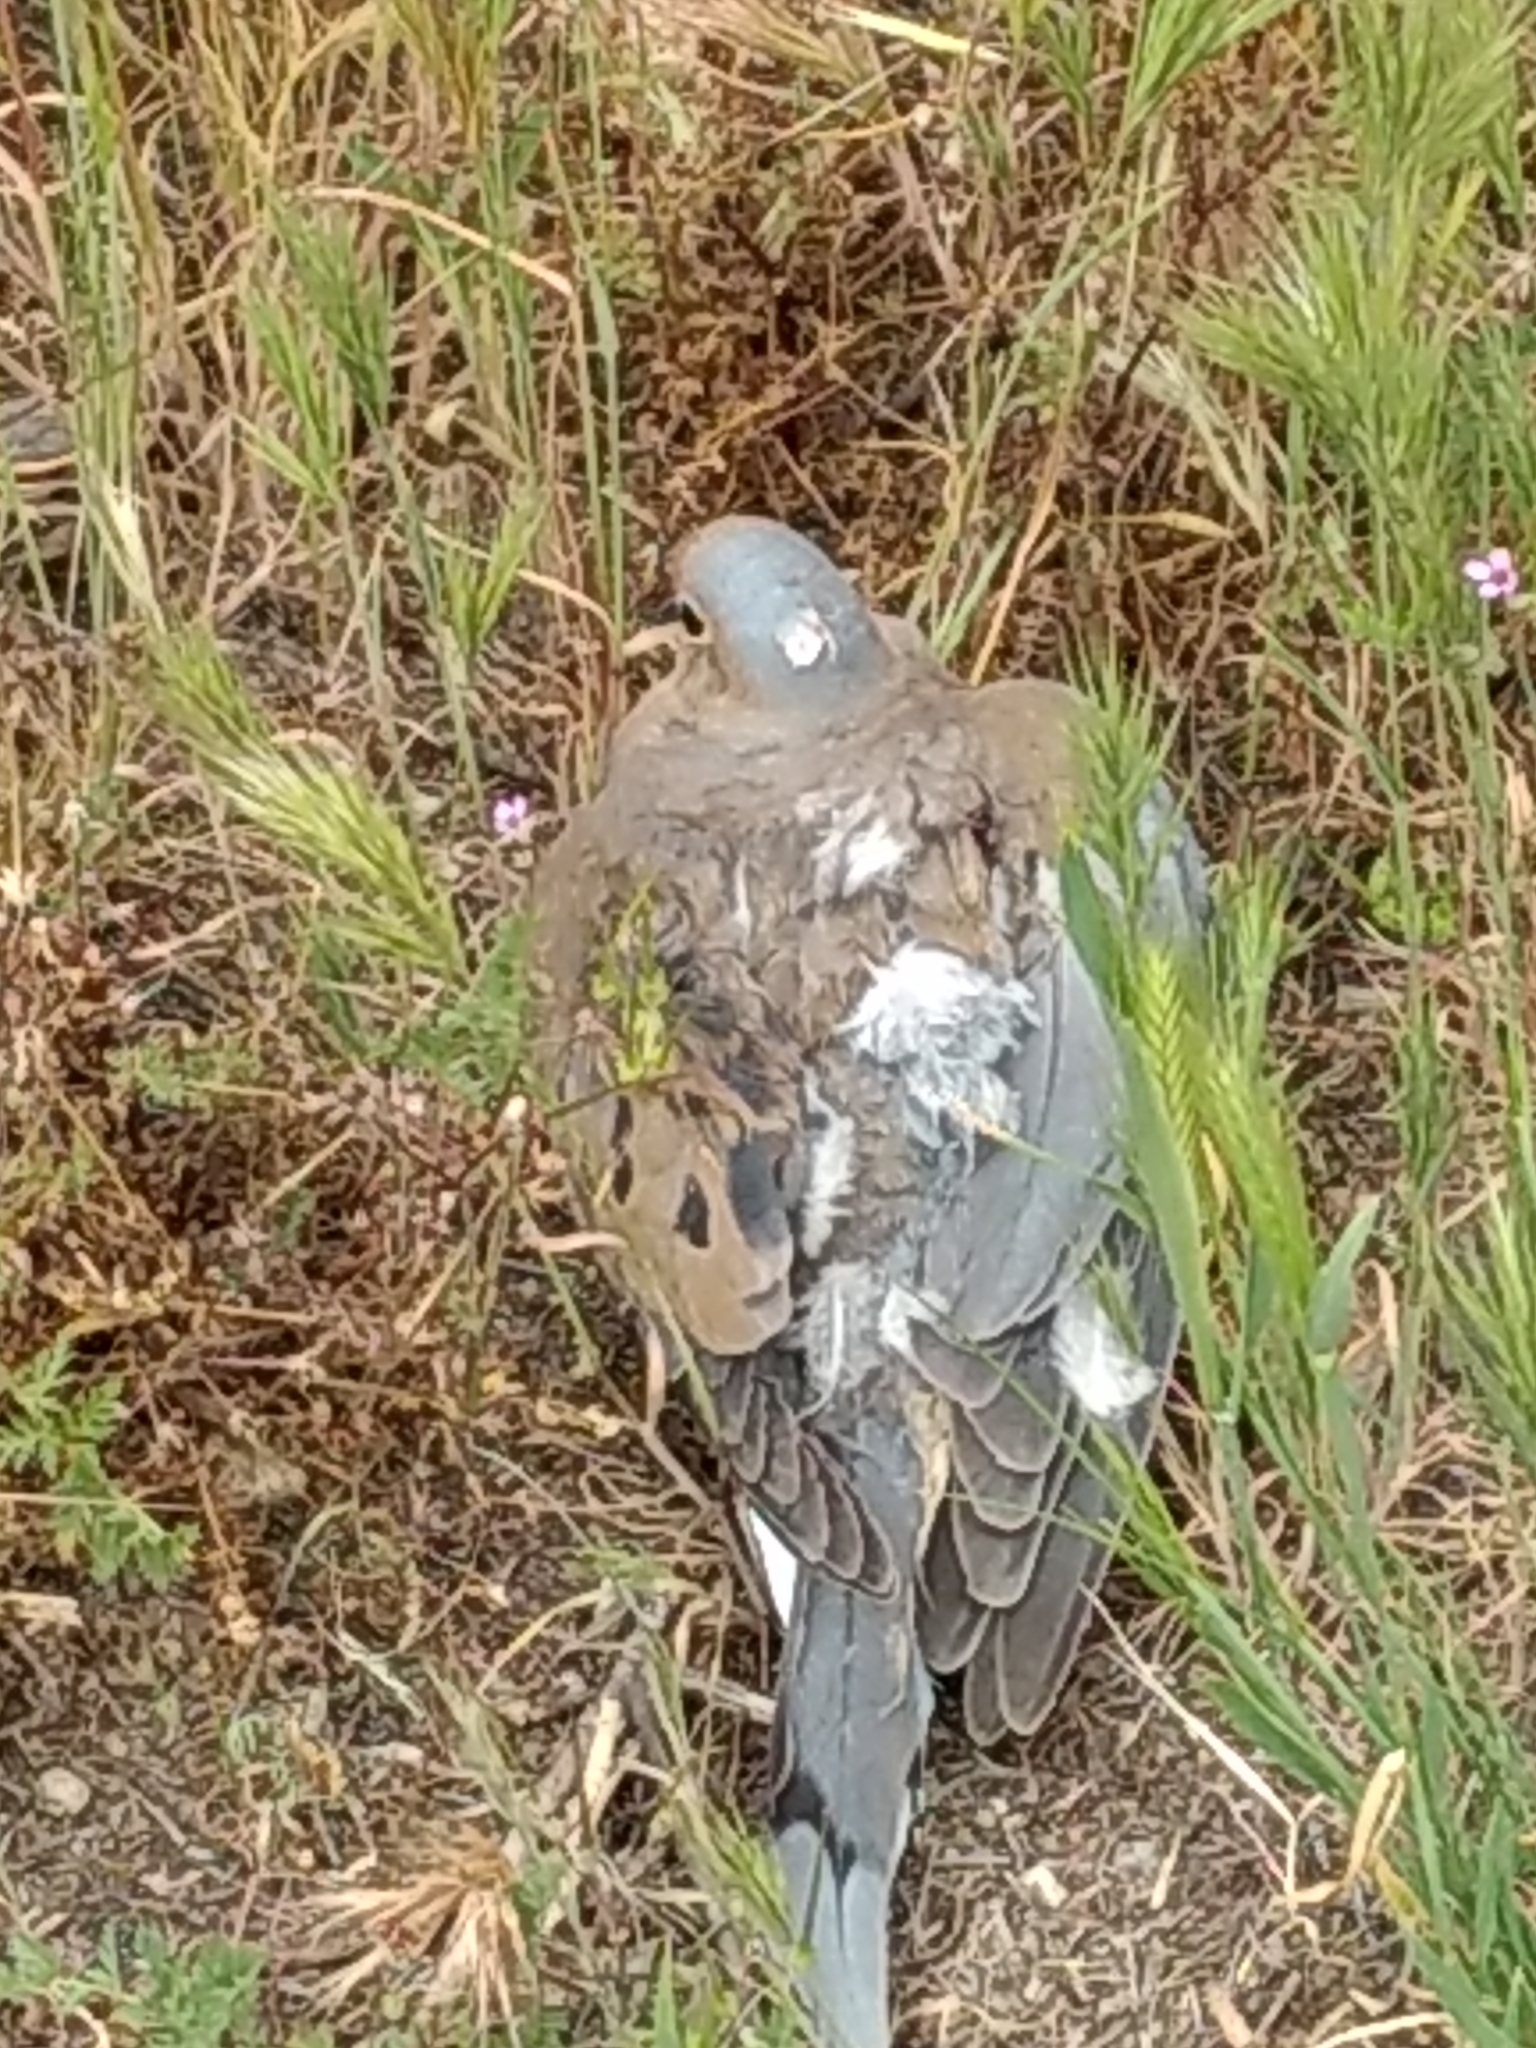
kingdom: Animalia
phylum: Chordata
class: Aves
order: Columbiformes
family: Columbidae
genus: Zenaida
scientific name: Zenaida macroura
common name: Mourning dove
